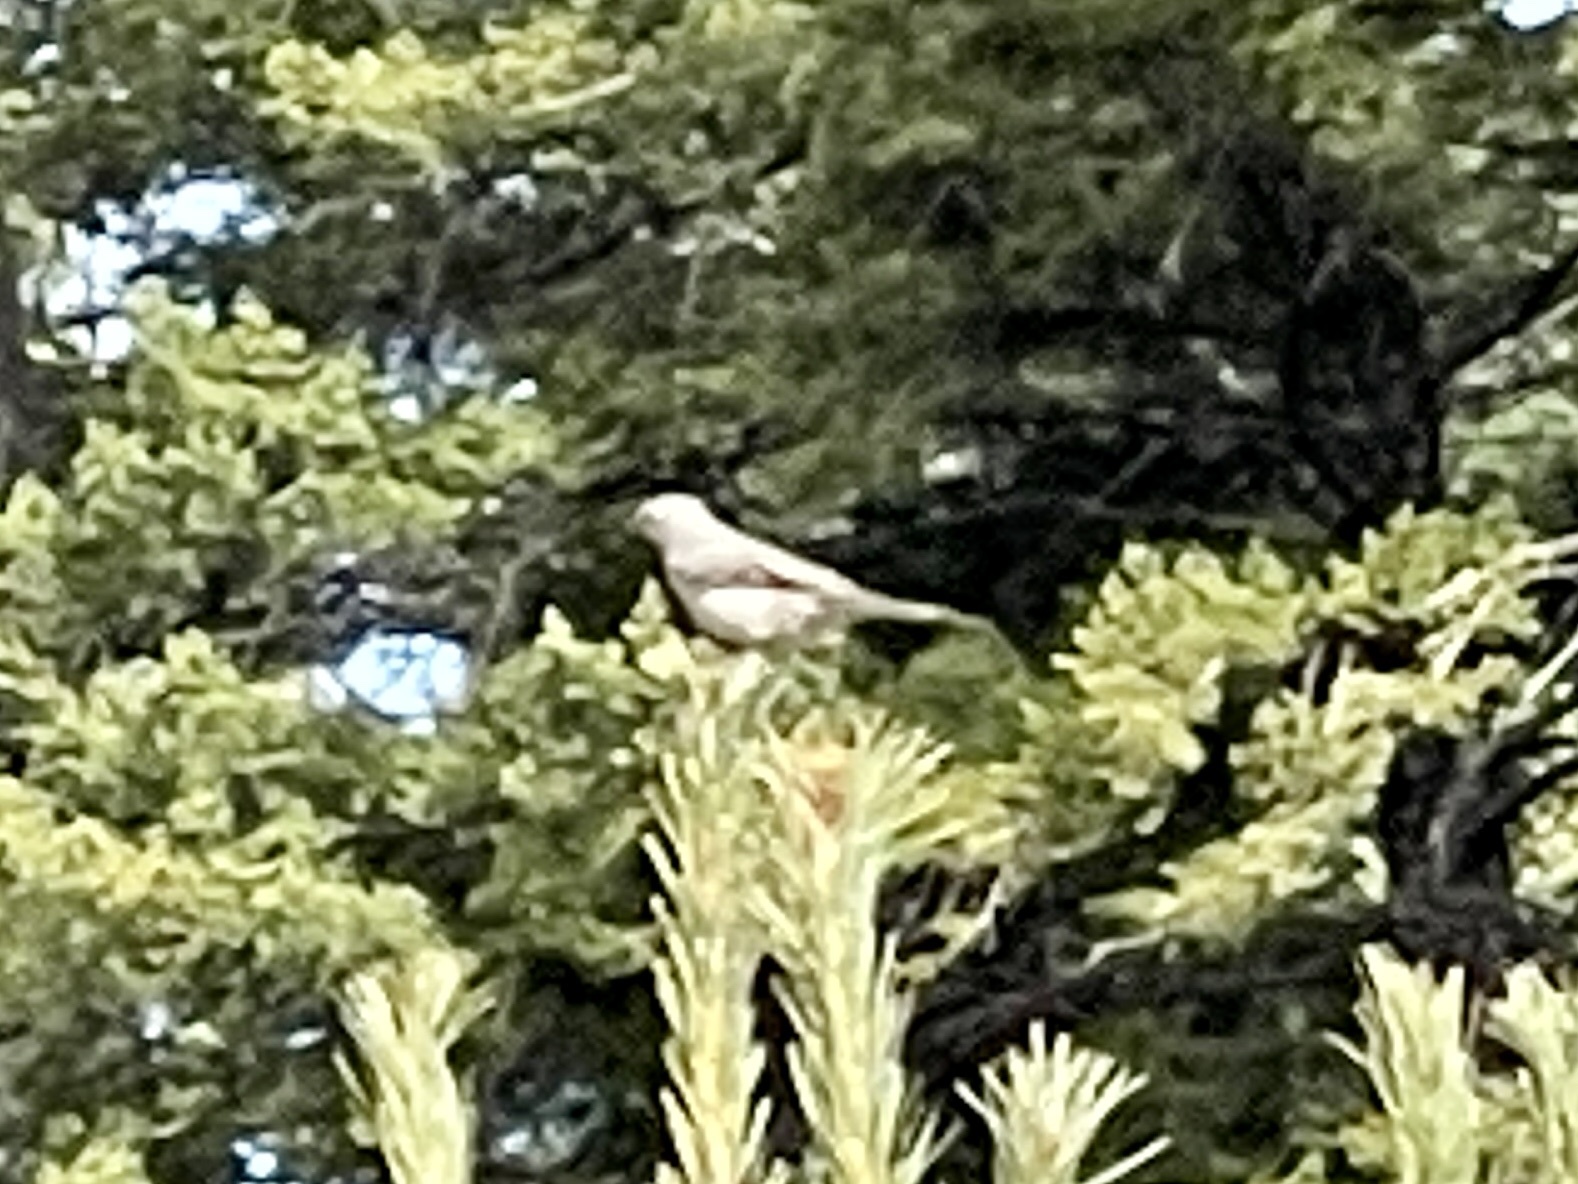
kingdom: Animalia
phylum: Chordata
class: Aves
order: Passeriformes
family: Turdidae
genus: Myadestes
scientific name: Myadestes townsendi
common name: Townsend's solitaire
